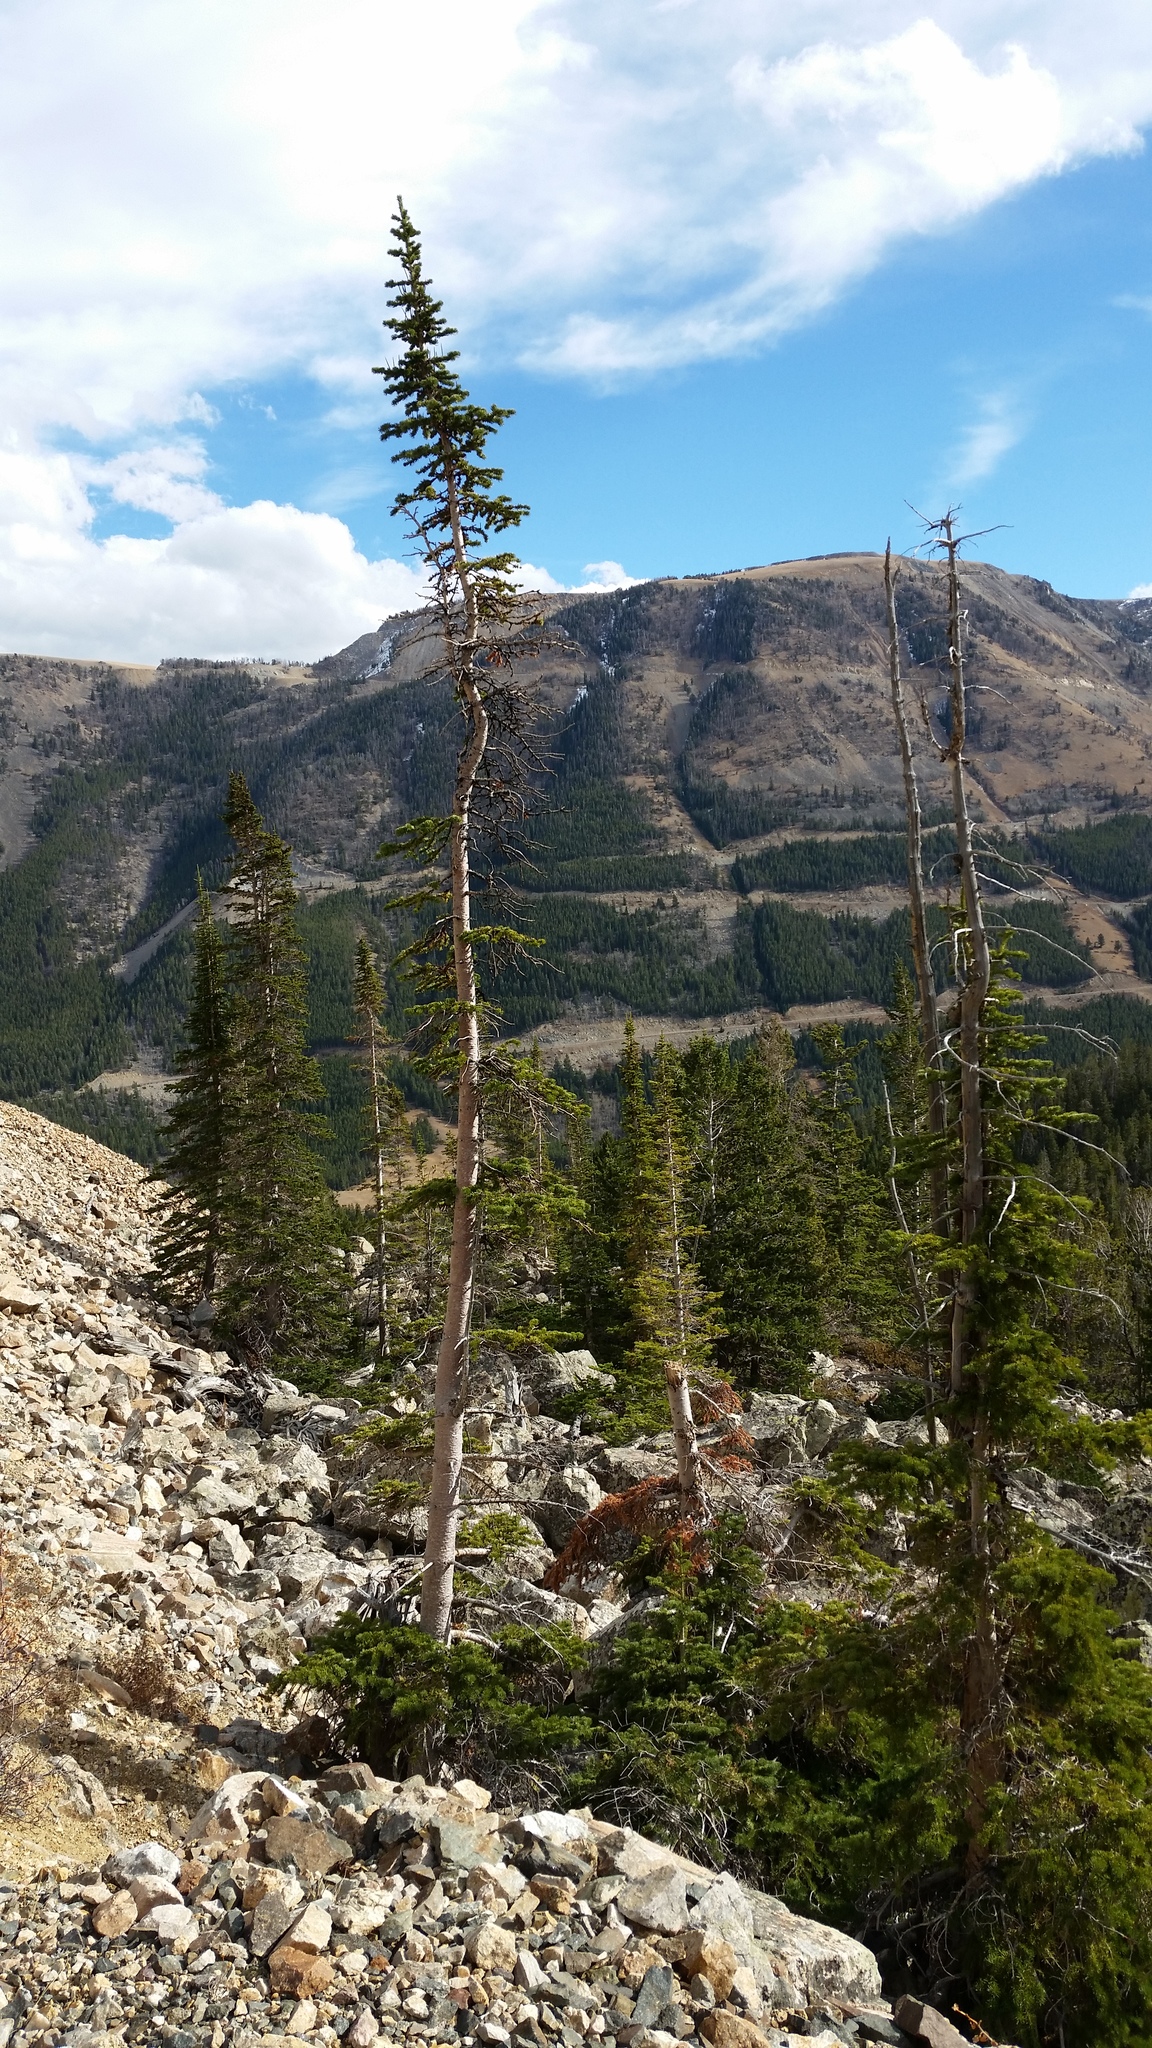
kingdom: Plantae
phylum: Tracheophyta
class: Pinopsida
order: Pinales
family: Pinaceae
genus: Abies
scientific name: Abies lasiocarpa
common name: Subalpine fir
